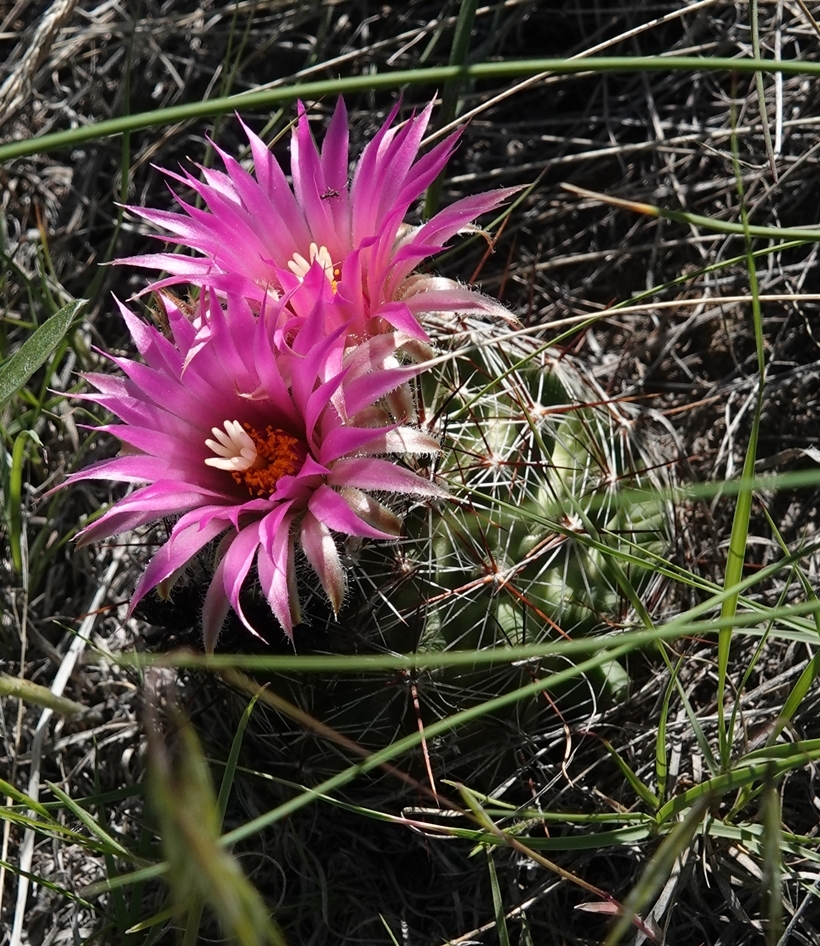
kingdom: Plantae
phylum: Tracheophyta
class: Magnoliopsida
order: Caryophyllales
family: Cactaceae
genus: Pelecyphora
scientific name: Pelecyphora vivipara
